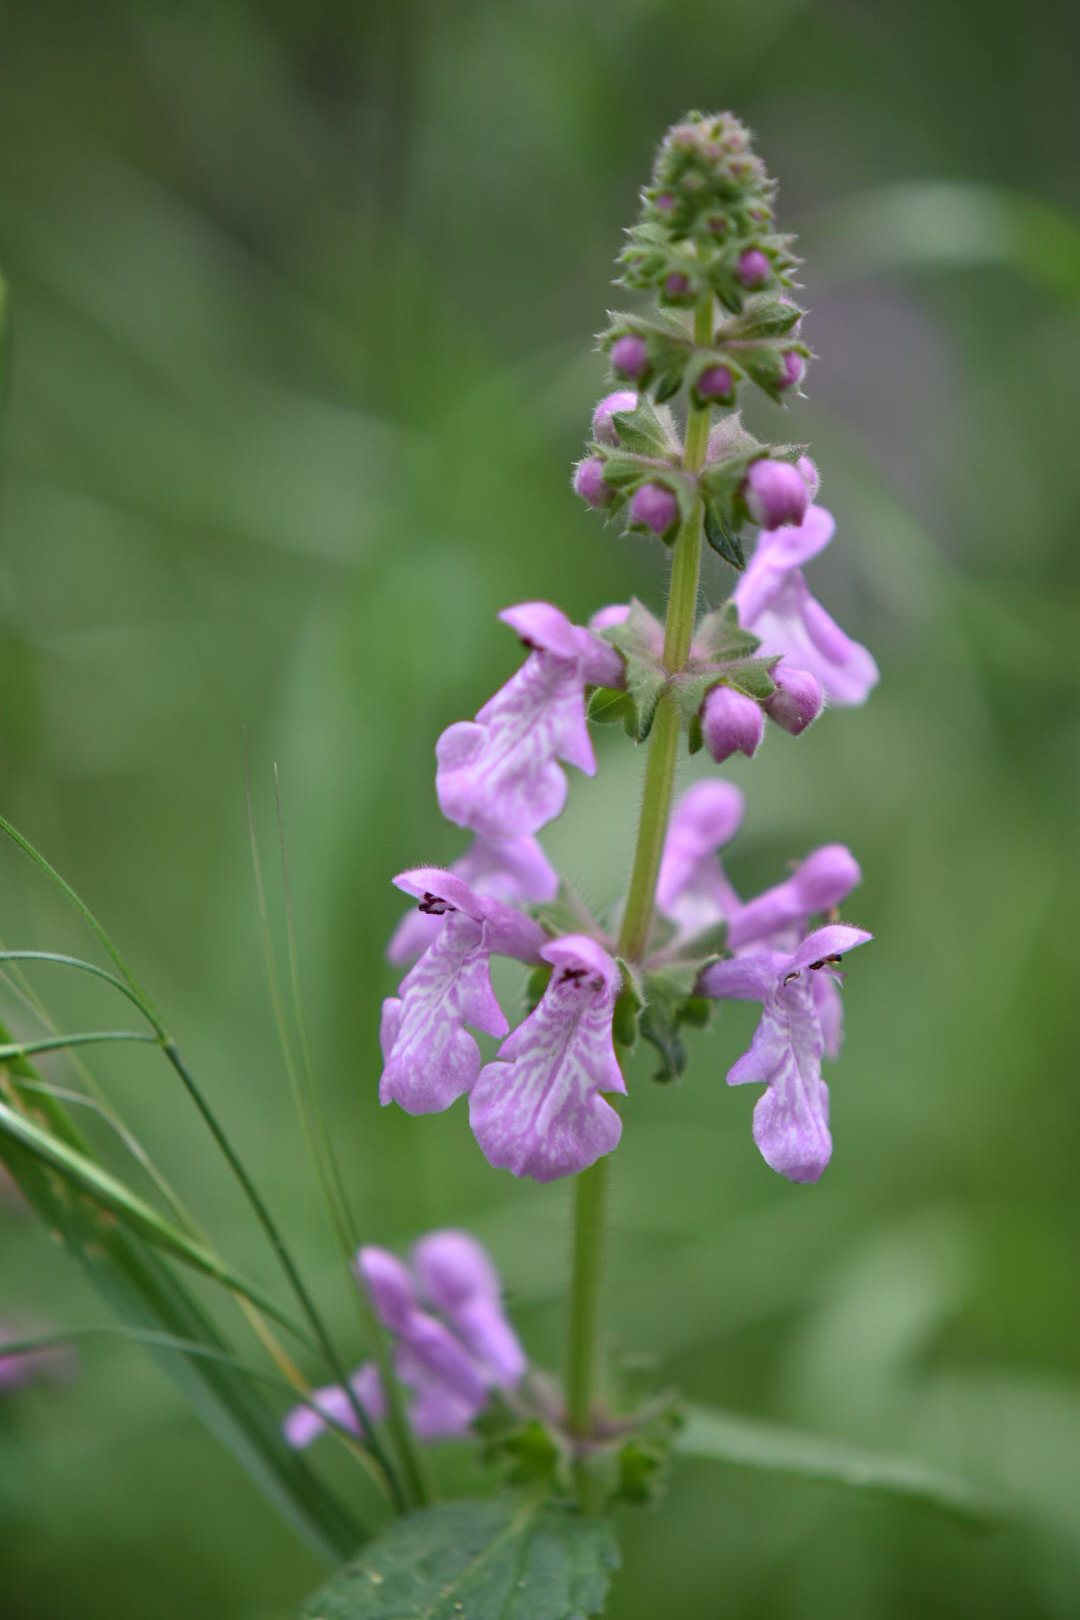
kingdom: Plantae
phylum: Tracheophyta
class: Magnoliopsida
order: Lamiales
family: Lamiaceae
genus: Stachys
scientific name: Stachys bullata
